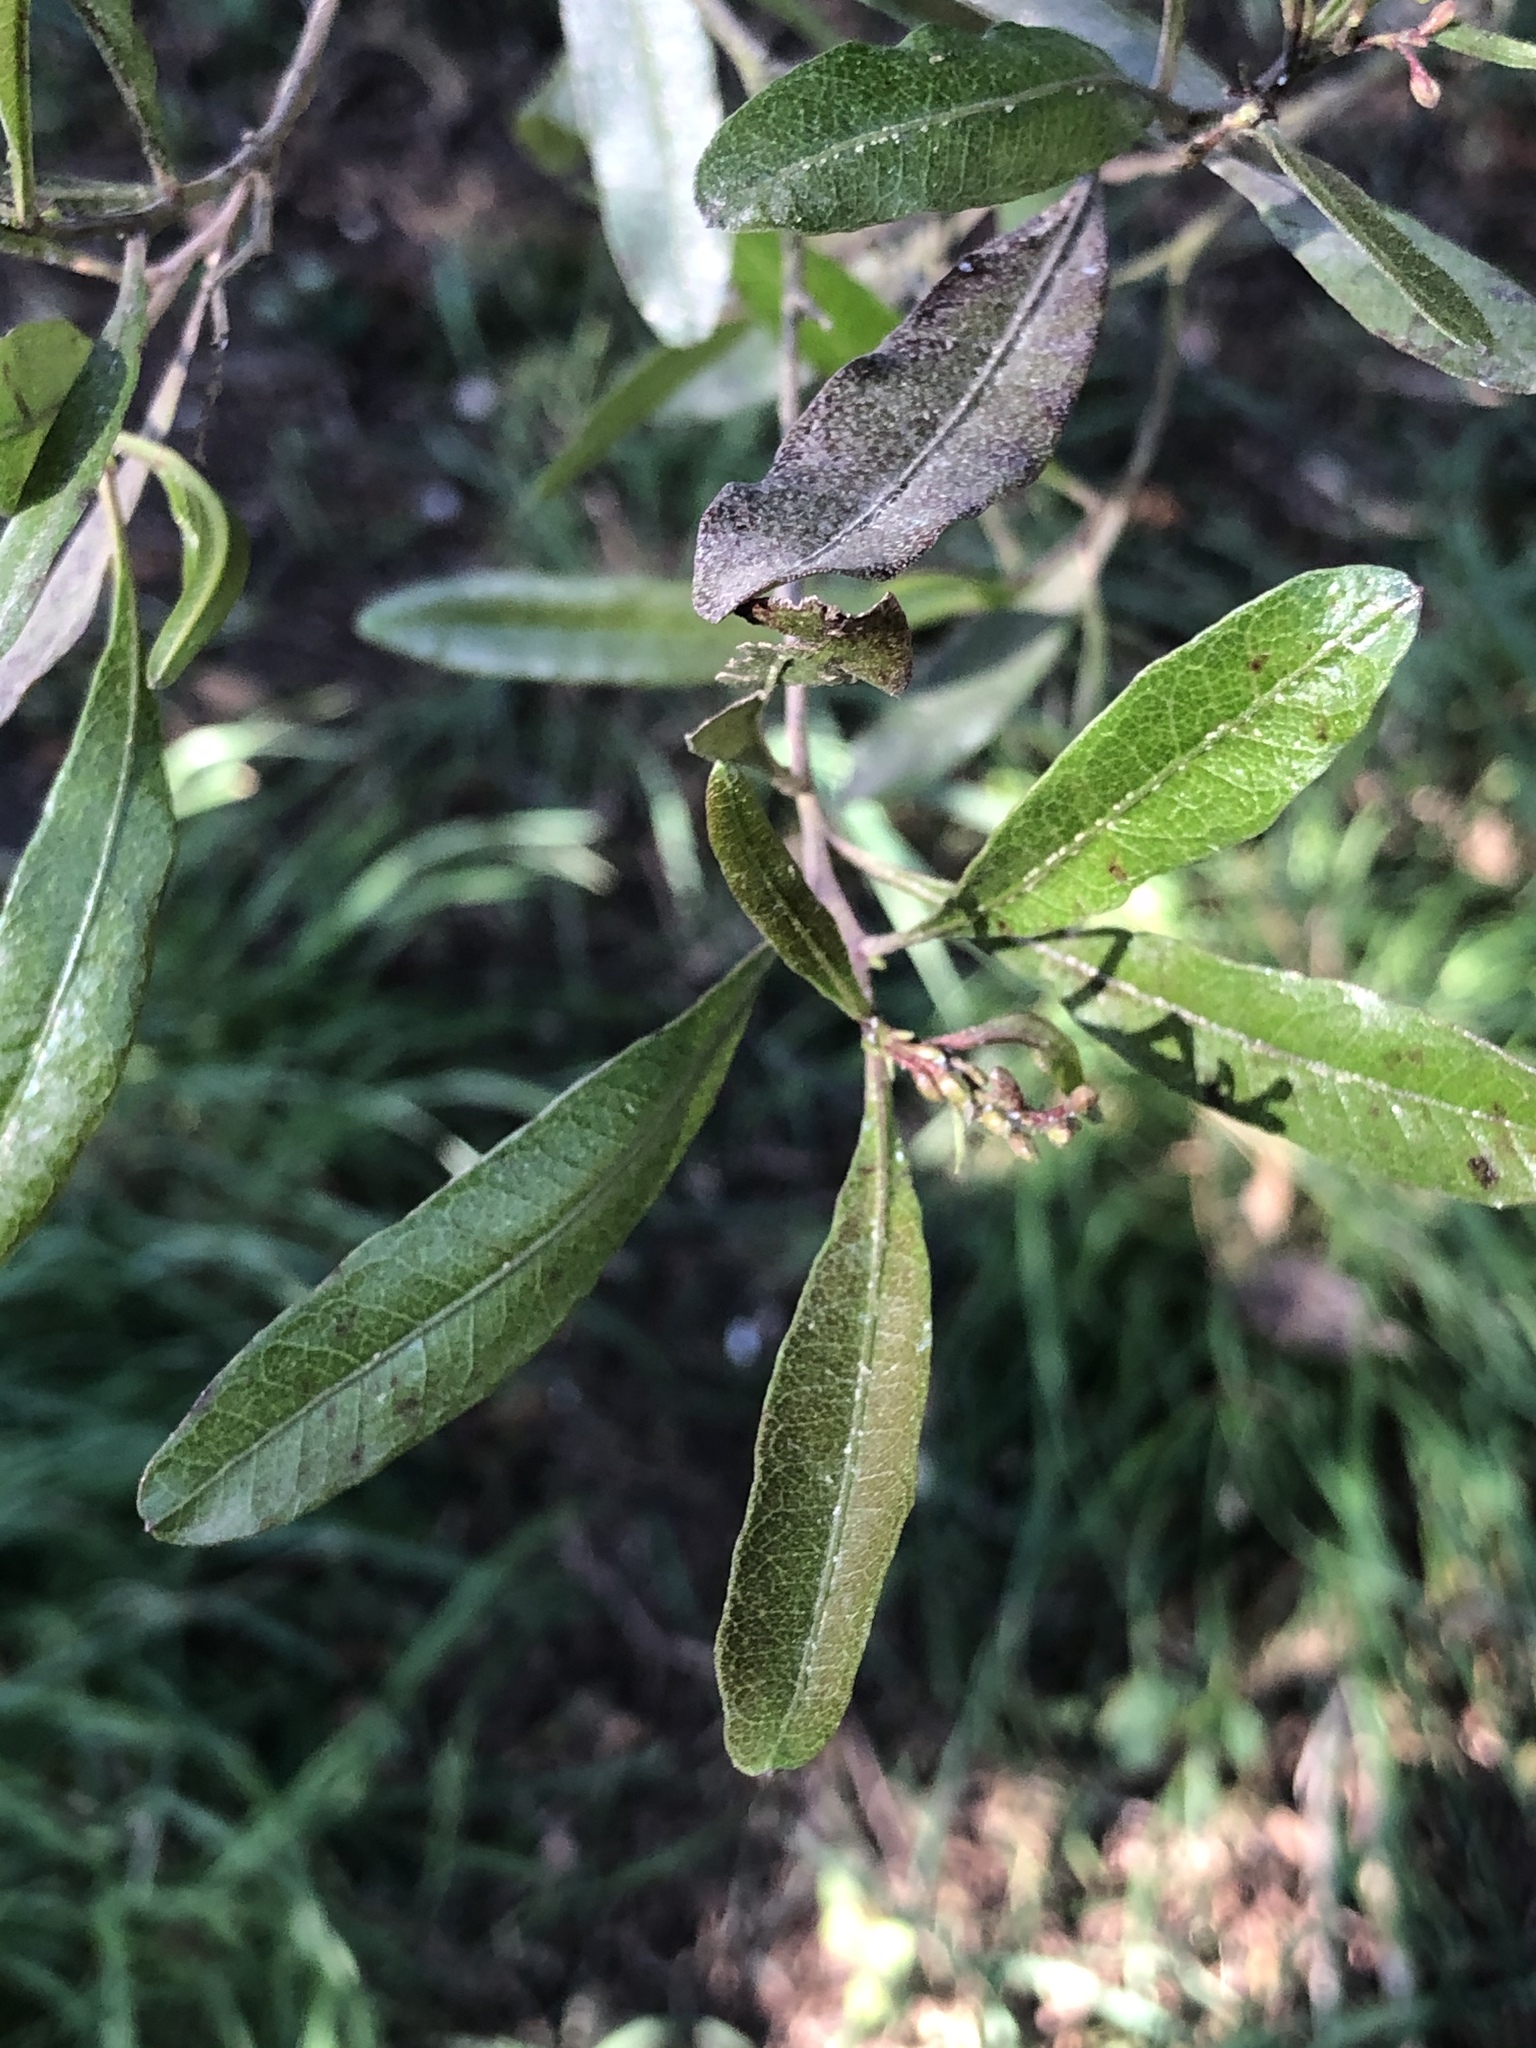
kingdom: Plantae
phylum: Tracheophyta
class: Magnoliopsida
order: Sapindales
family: Sapindaceae
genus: Dodonaea
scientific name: Dodonaea viscosa
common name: Hopbush
